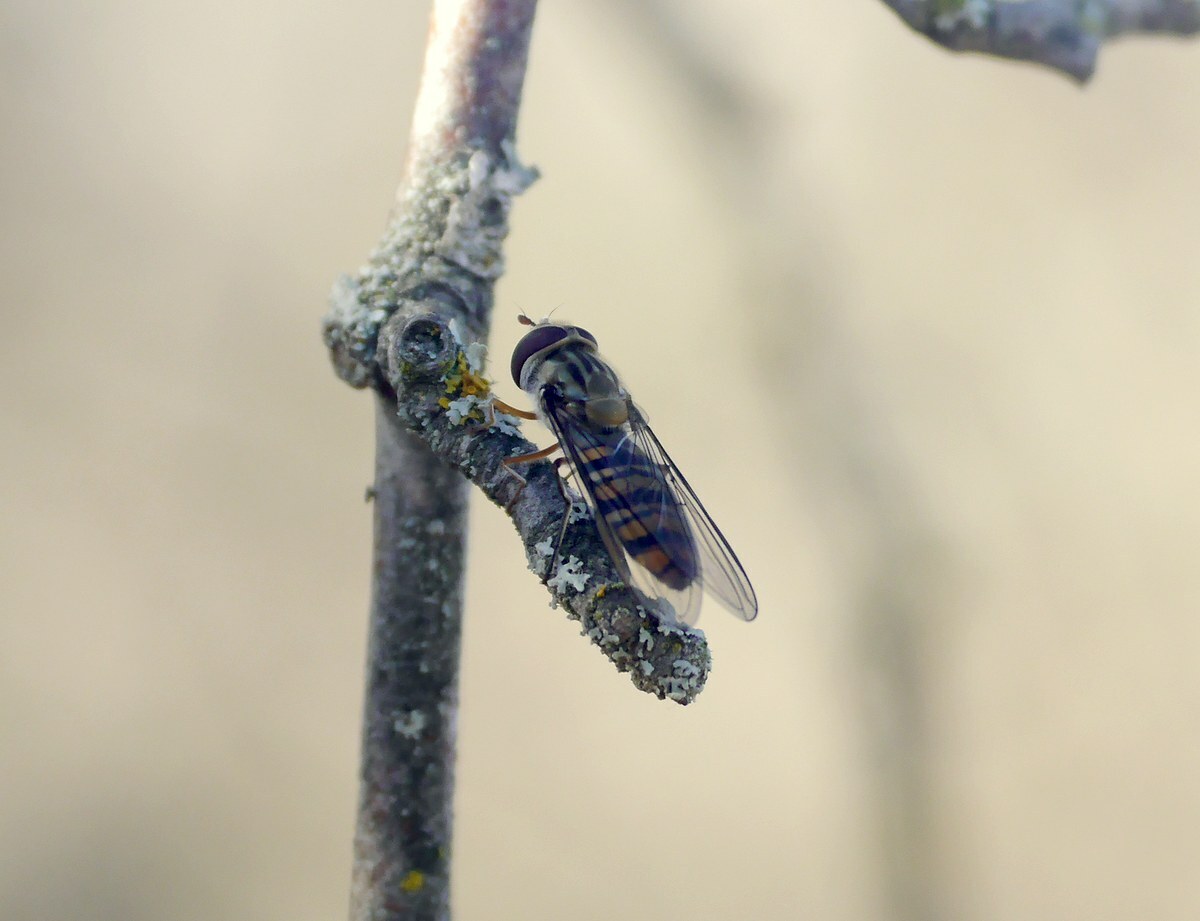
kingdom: Animalia
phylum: Arthropoda
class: Insecta
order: Diptera
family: Syrphidae
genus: Episyrphus
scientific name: Episyrphus balteatus
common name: Marmalade hoverfly
